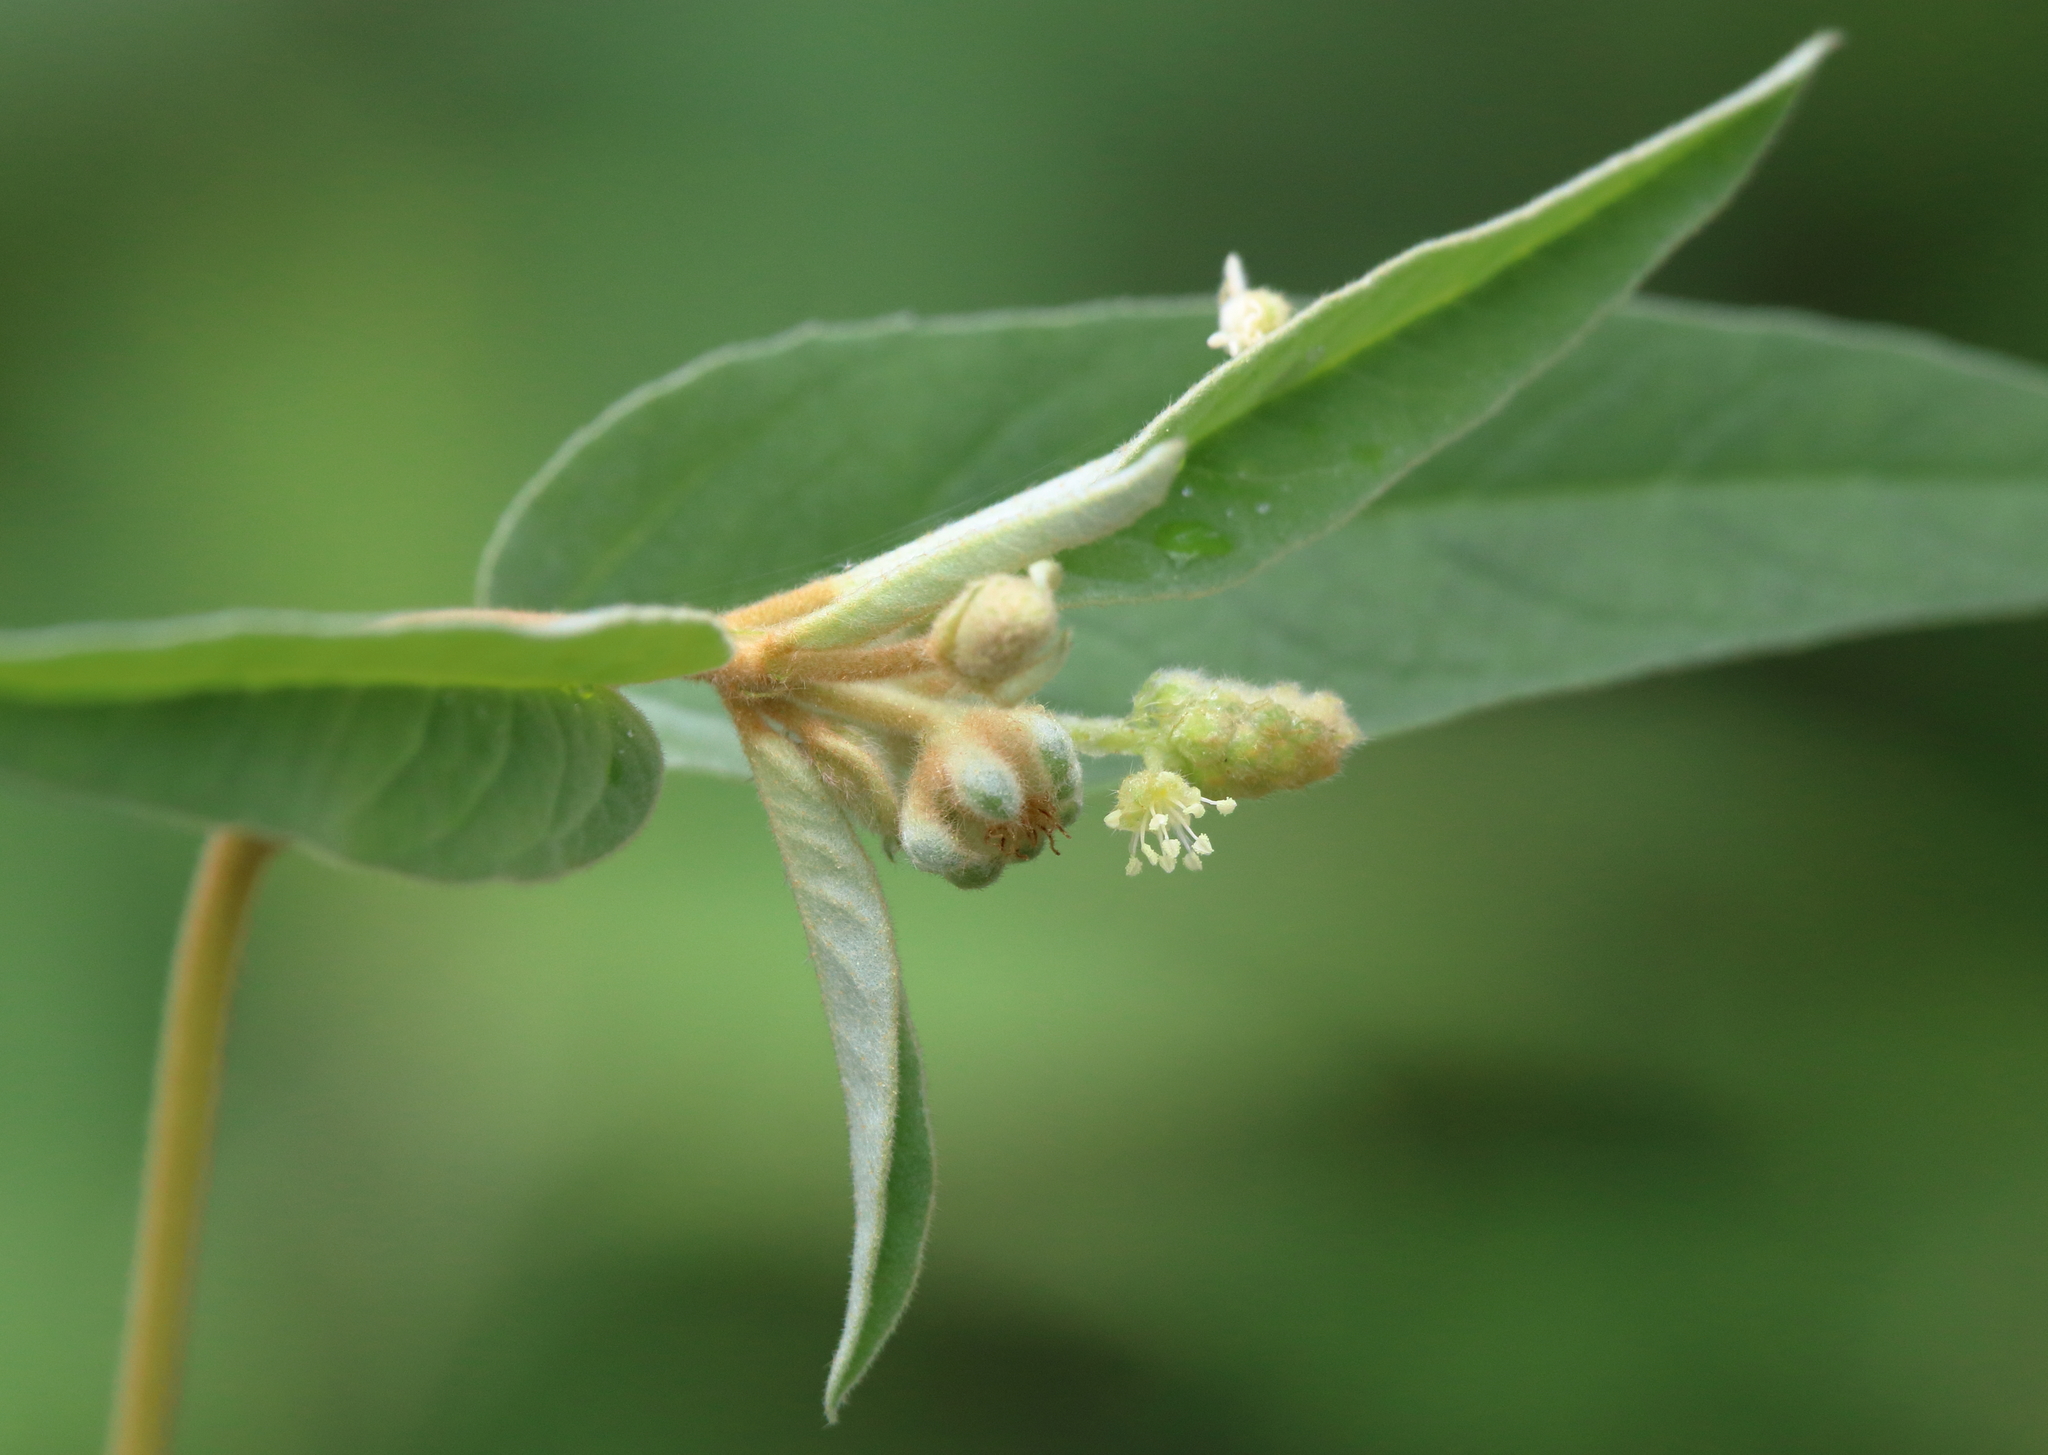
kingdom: Plantae
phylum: Tracheophyta
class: Magnoliopsida
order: Malpighiales
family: Euphorbiaceae
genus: Croton
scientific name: Croton lindheimeri
